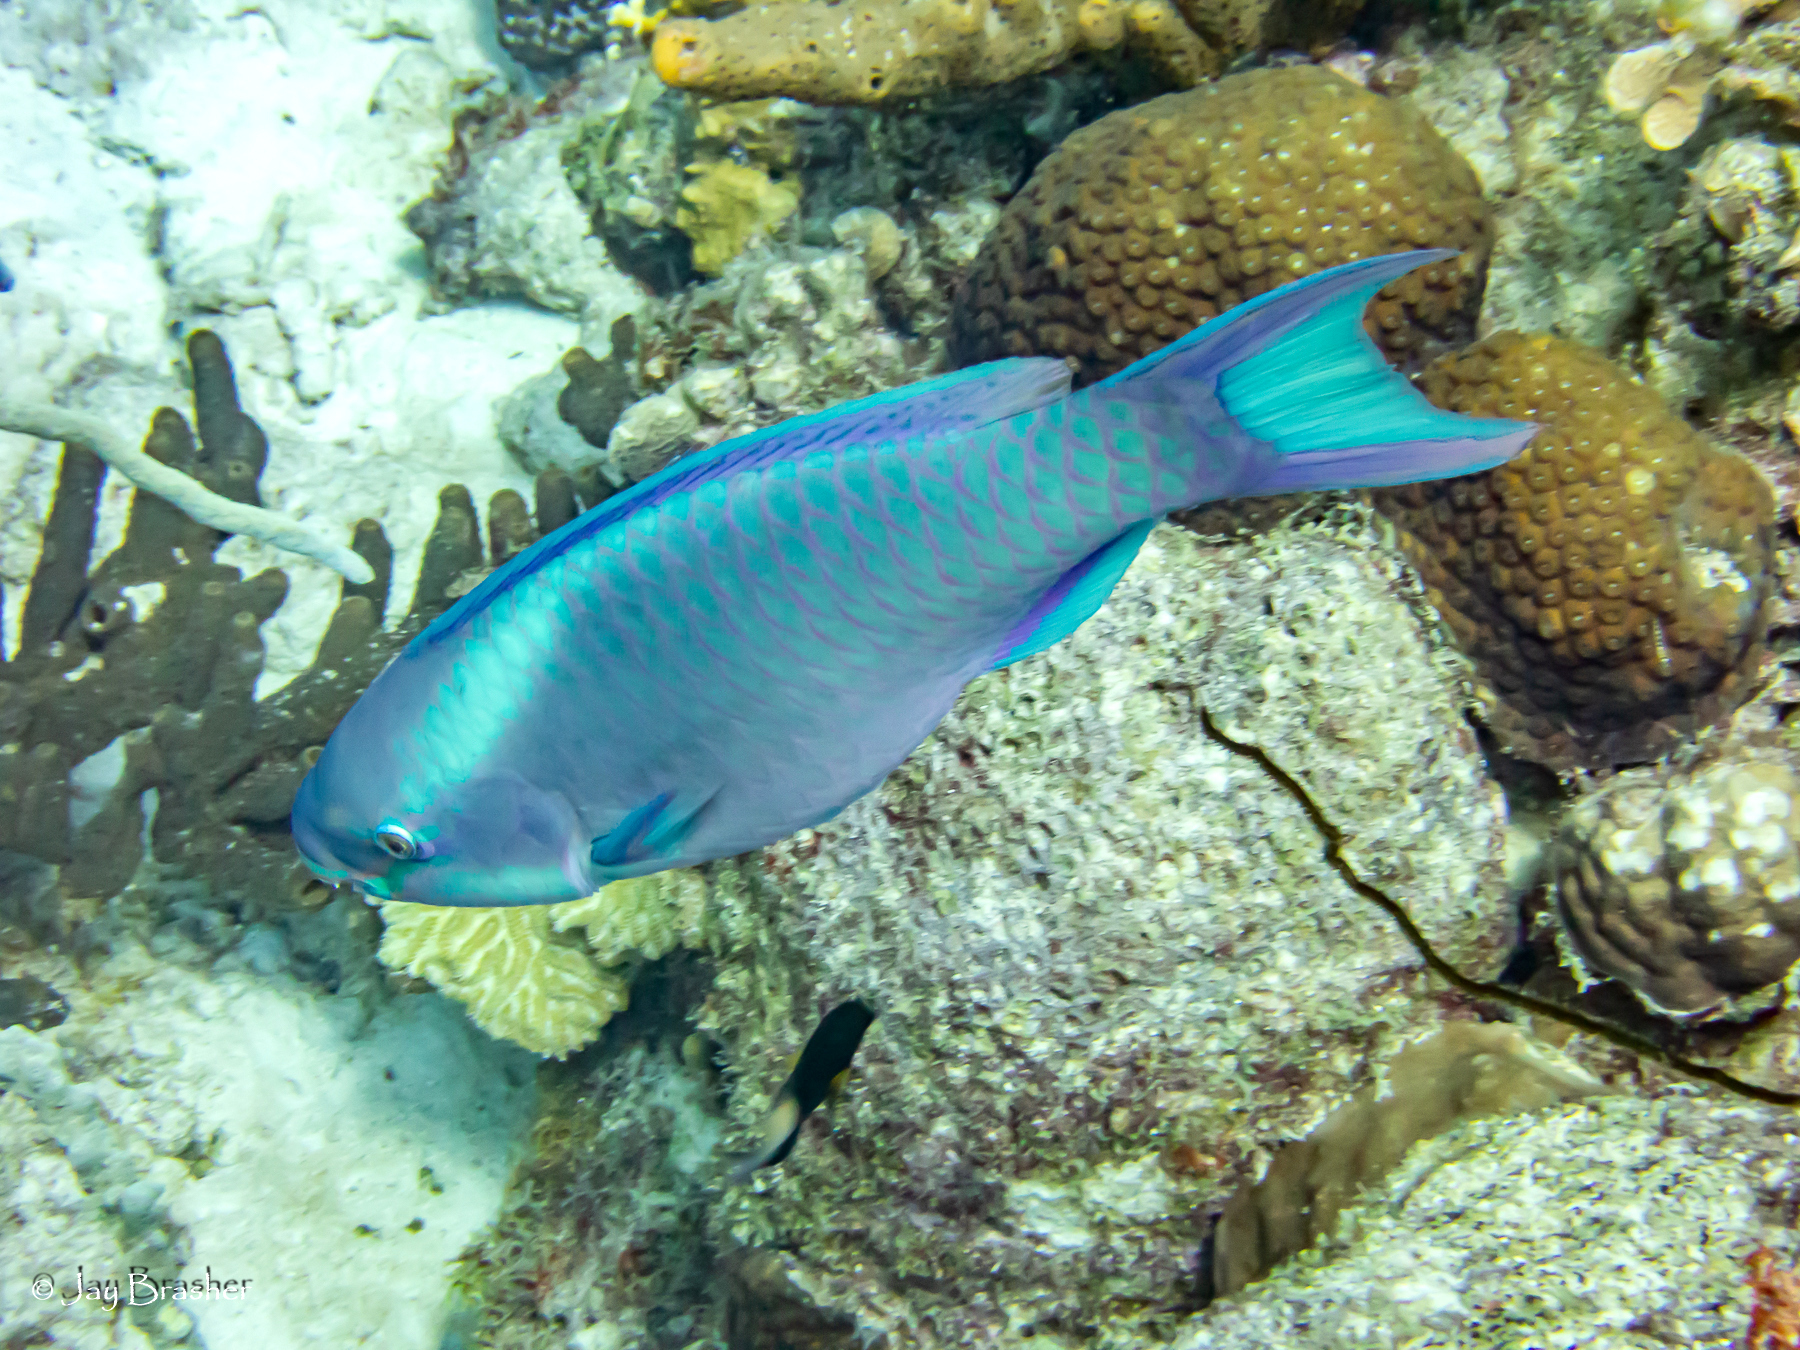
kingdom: Animalia
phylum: Chordata
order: Perciformes
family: Scaridae
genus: Scarus
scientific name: Scarus vetula
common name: Queen parrotfish
